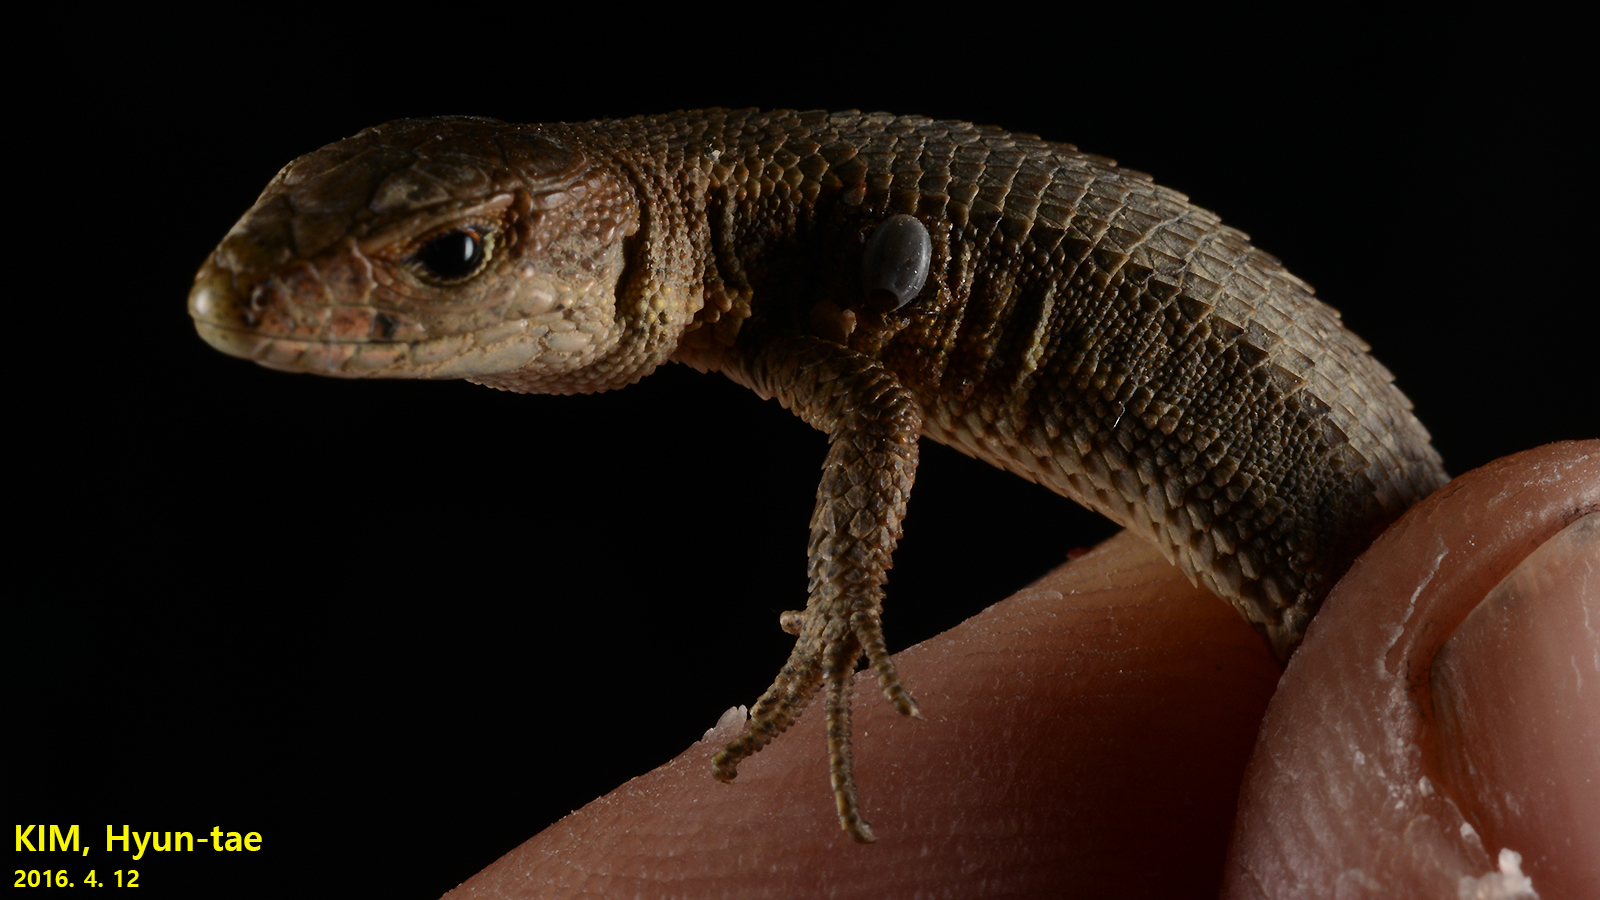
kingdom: Animalia
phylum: Arthropoda
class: Arachnida
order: Ixodida
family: Ixodidae
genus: Ixodes
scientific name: Ixodes nipponensis
